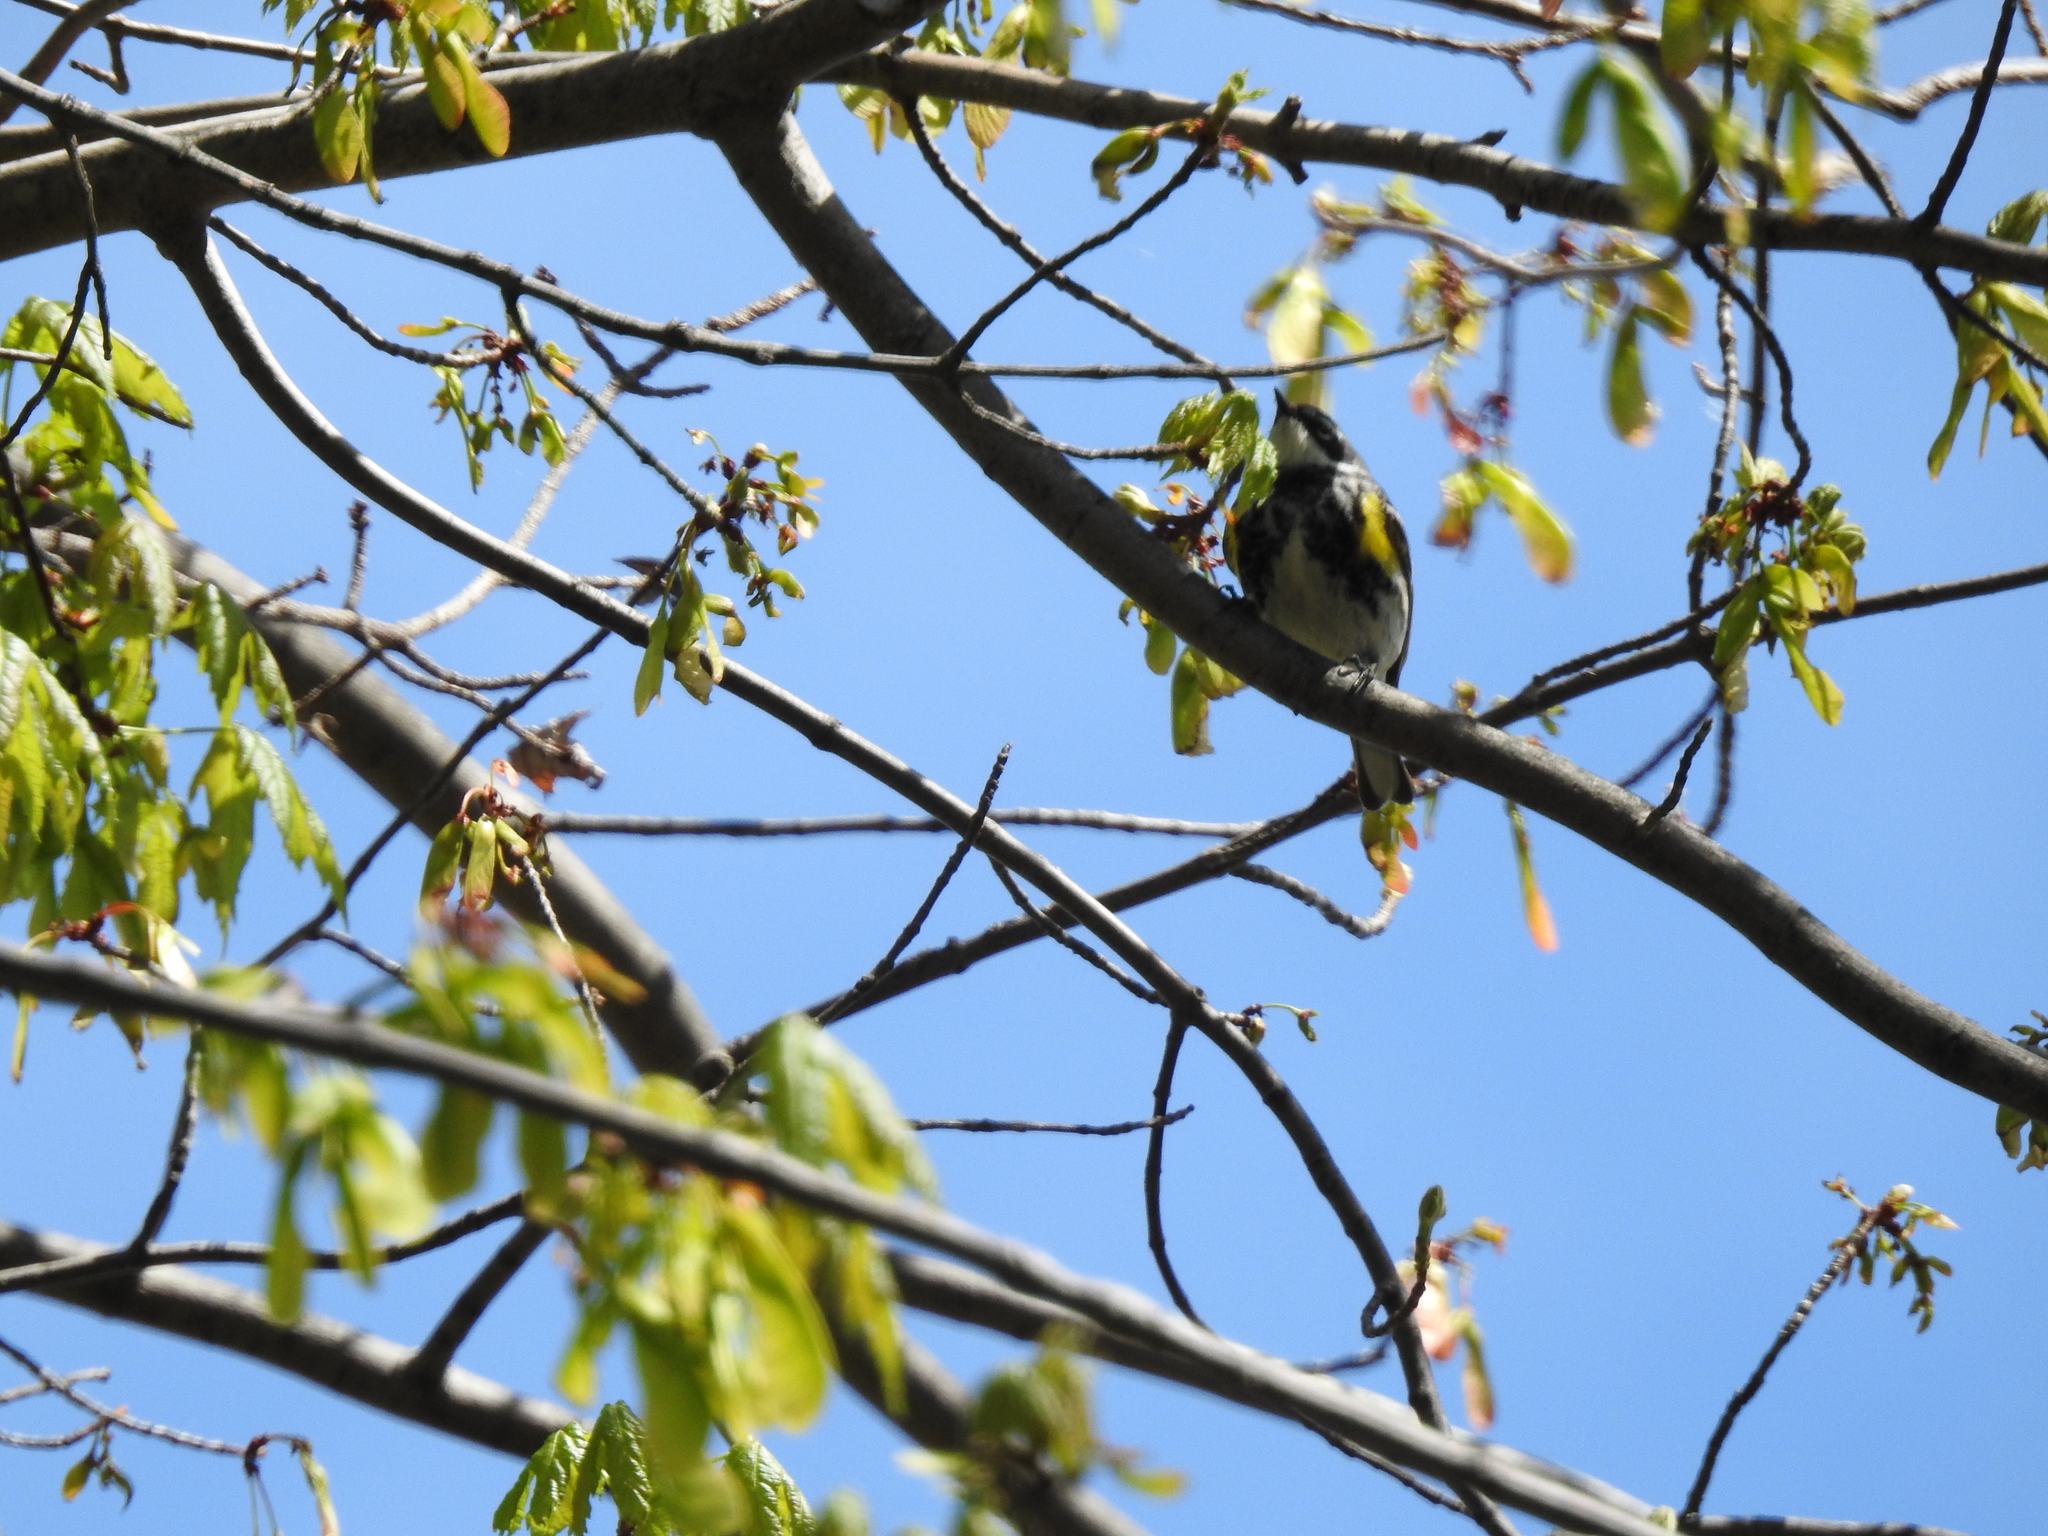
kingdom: Animalia
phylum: Chordata
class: Aves
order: Passeriformes
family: Parulidae
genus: Setophaga
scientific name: Setophaga coronata
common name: Myrtle warbler
